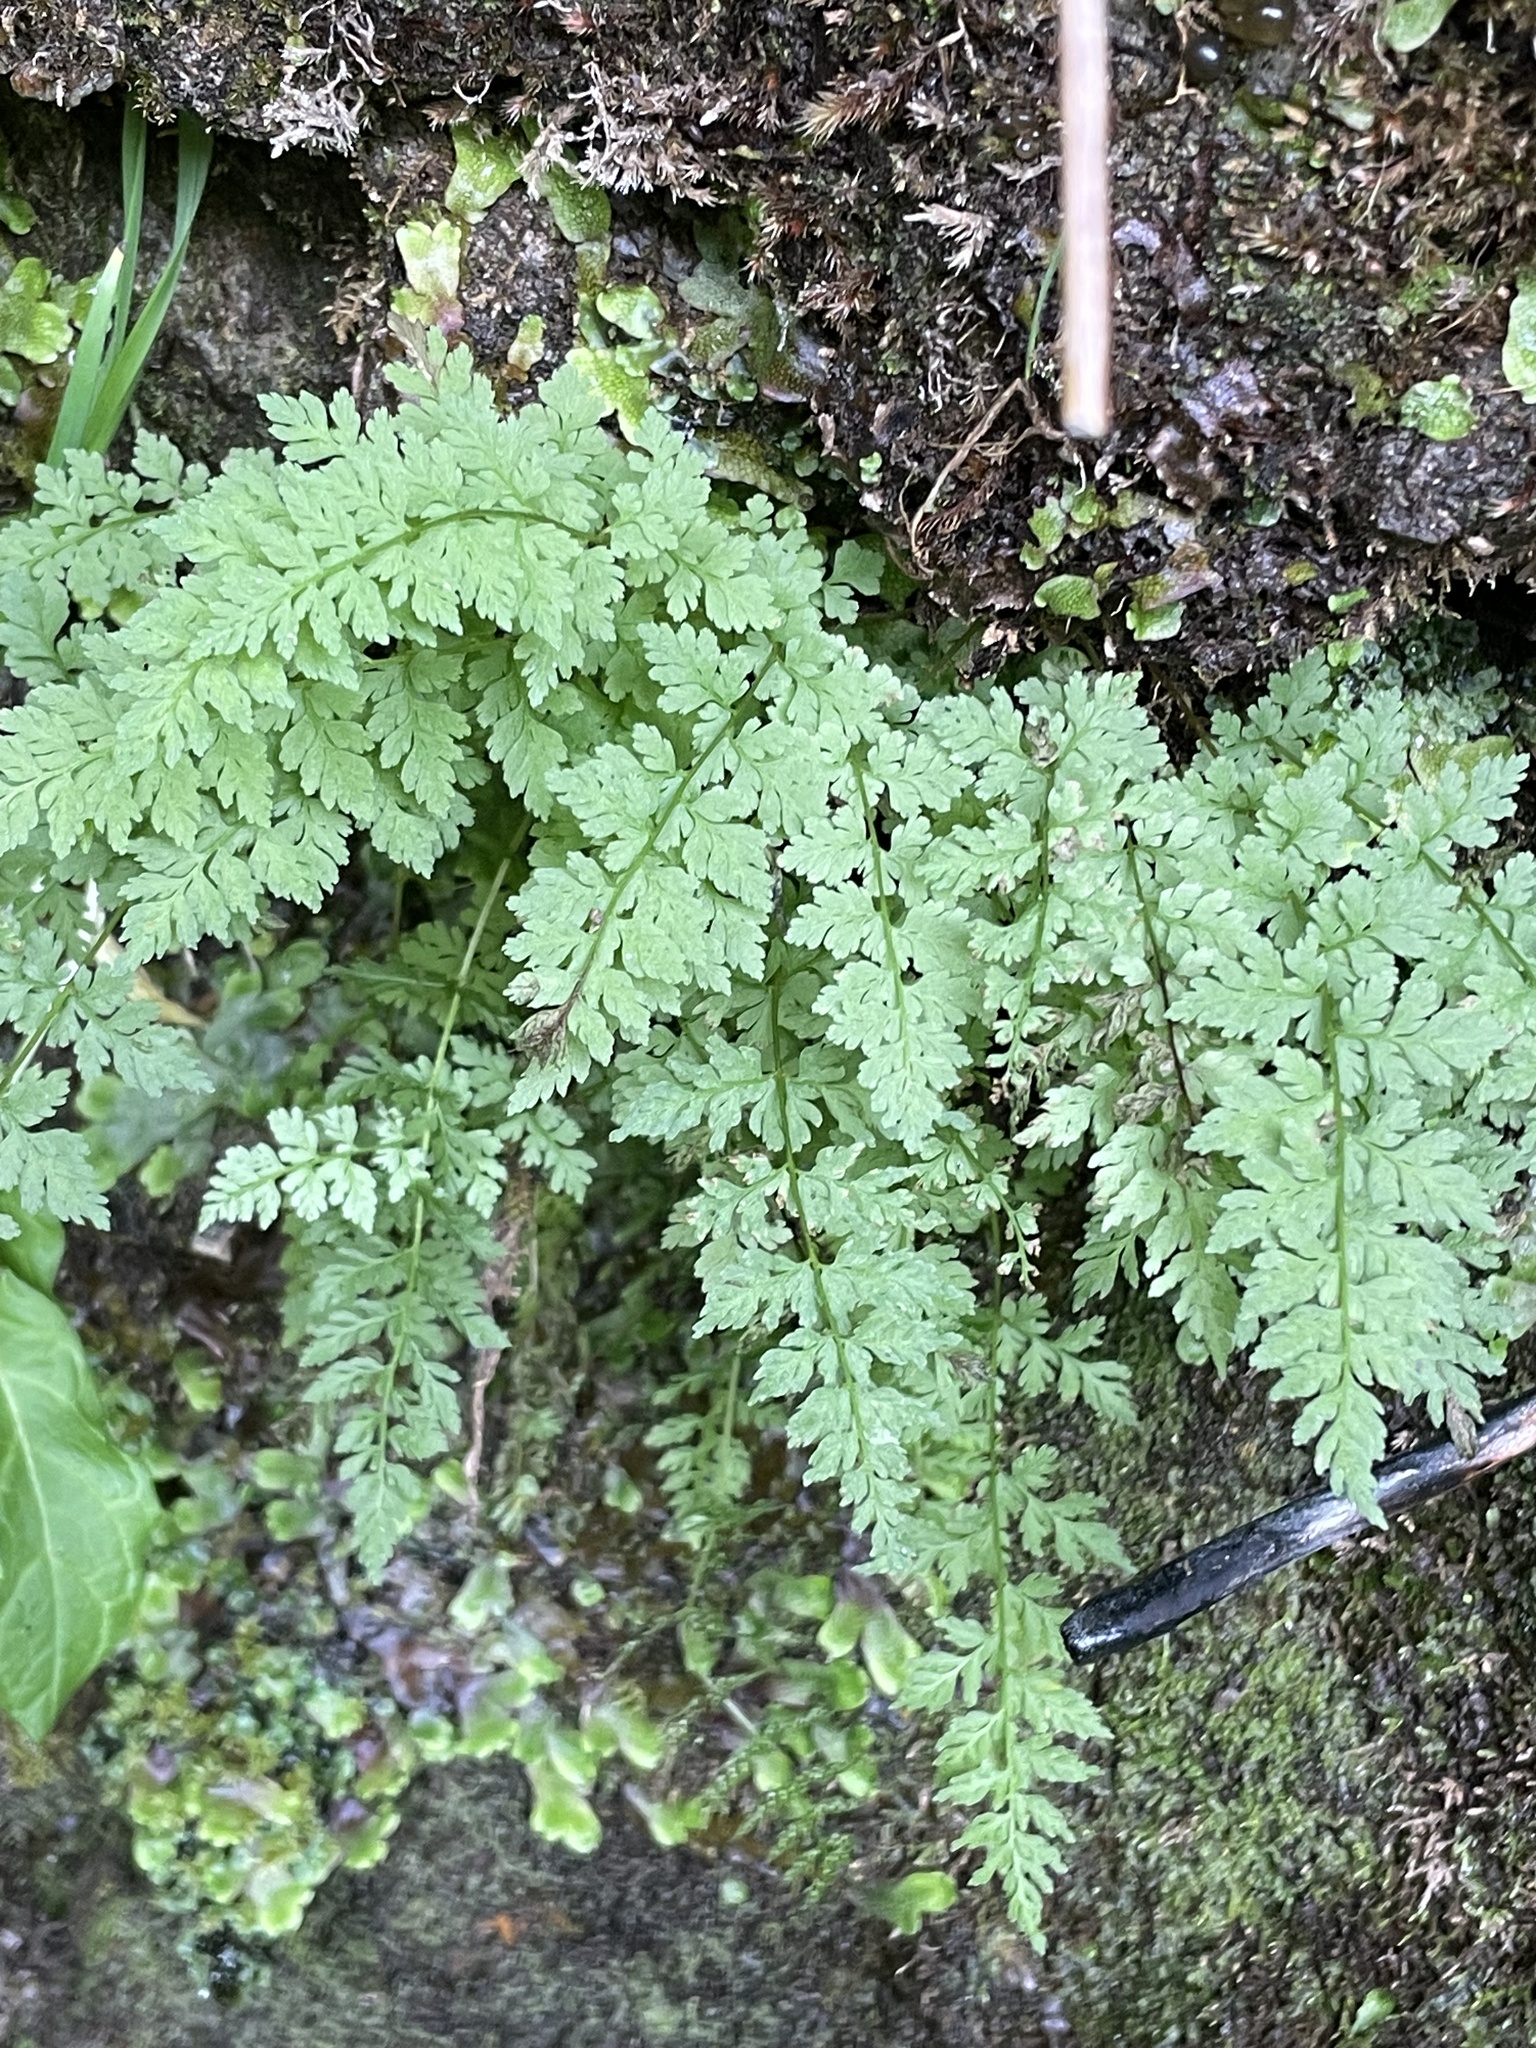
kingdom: Plantae
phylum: Tracheophyta
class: Polypodiopsida
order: Polypodiales
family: Cystopteridaceae
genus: Cystopteris
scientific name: Cystopteris fragilis
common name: Brittle bladder fern
